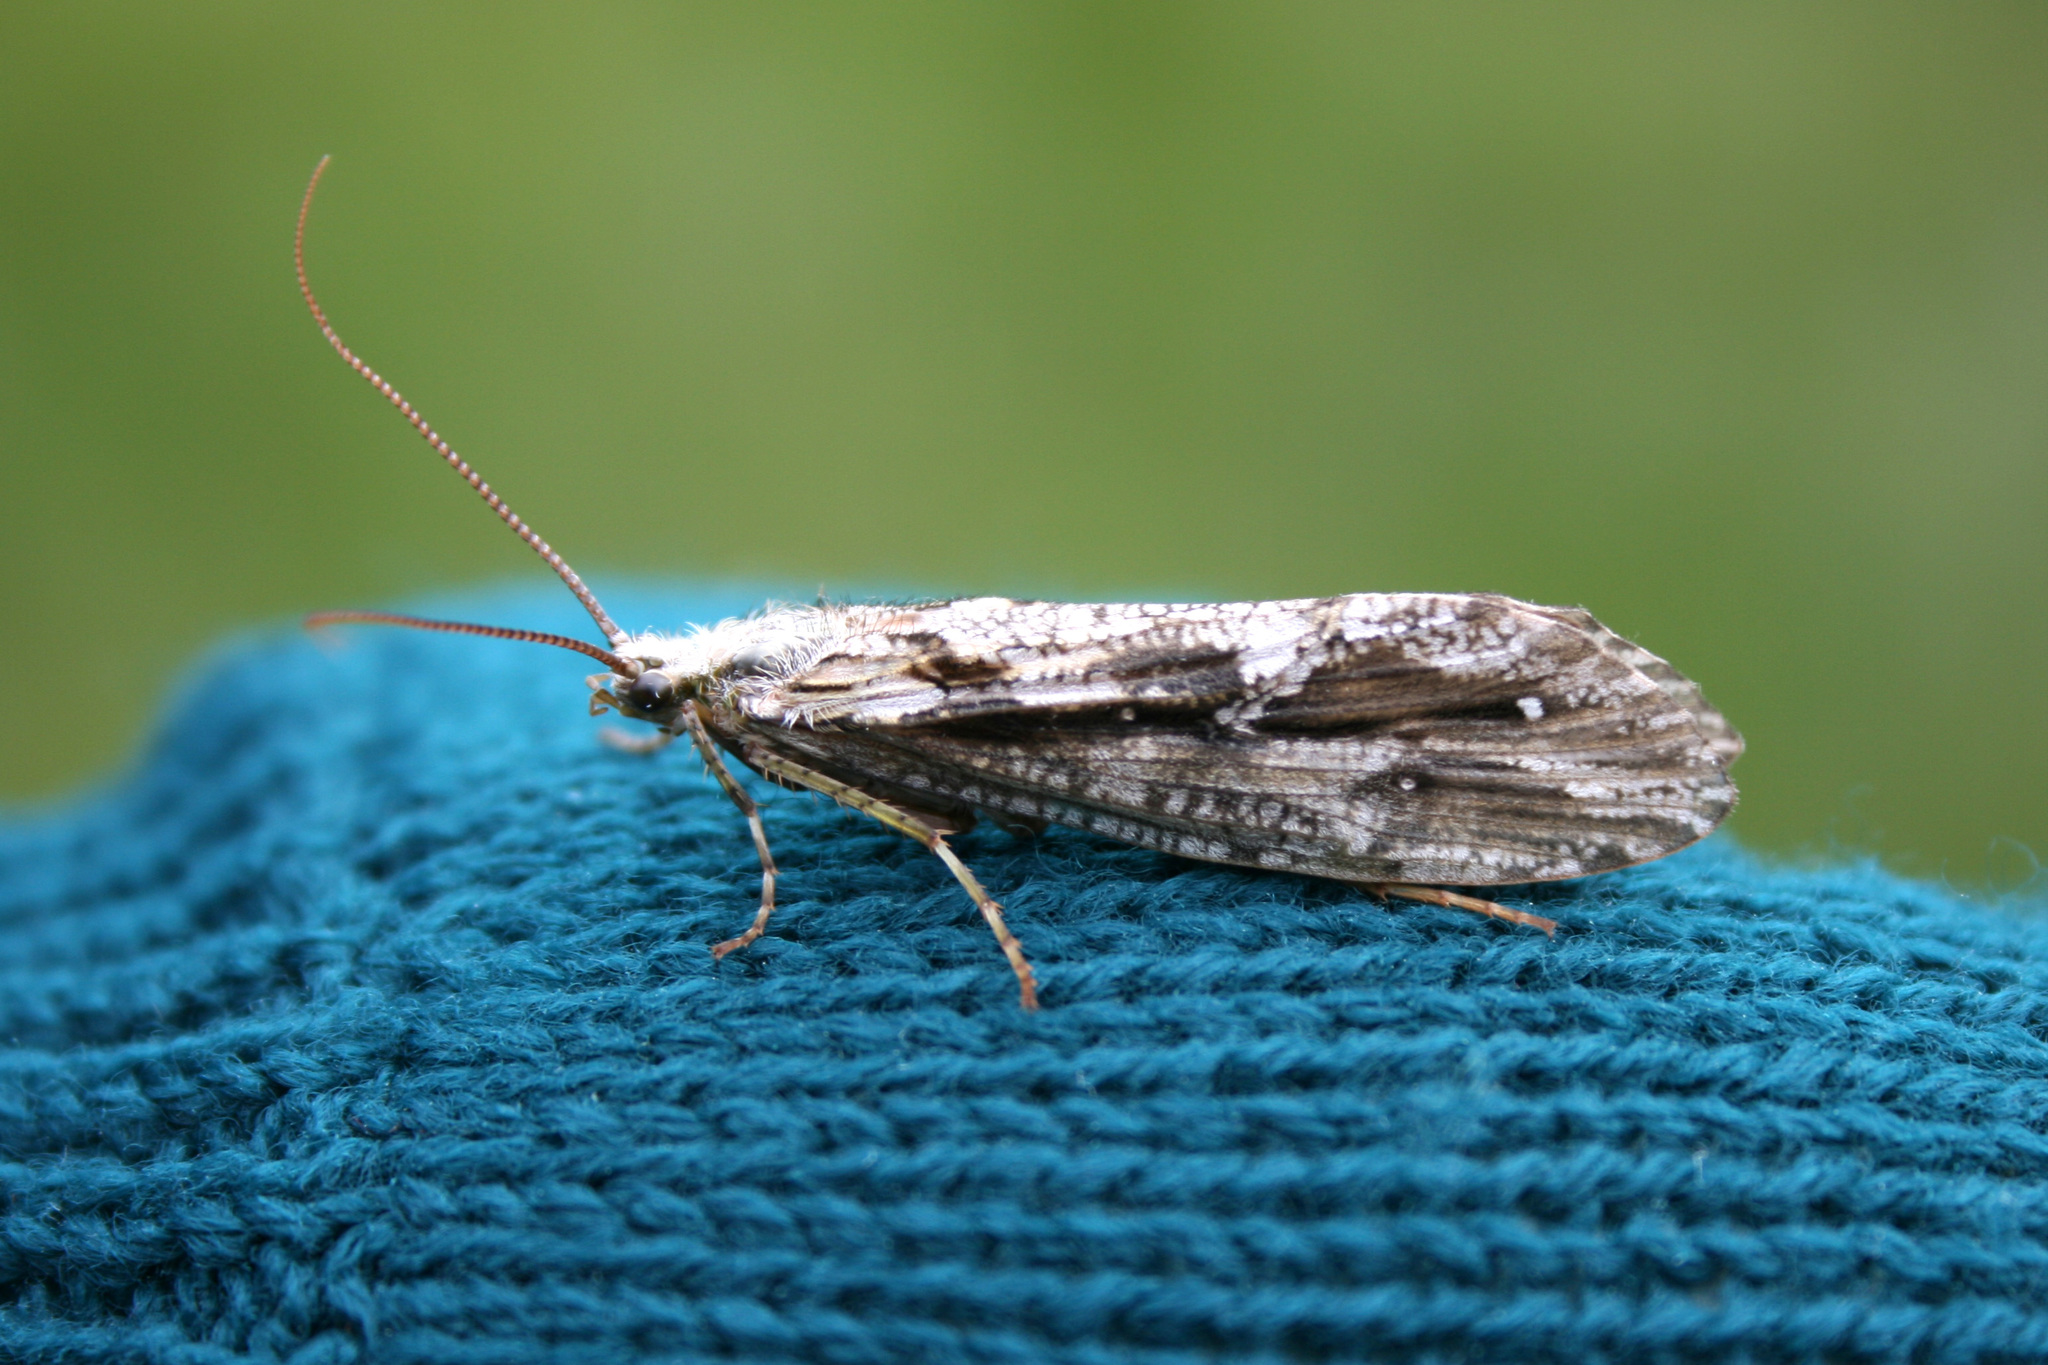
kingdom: Animalia
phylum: Arthropoda
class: Insecta
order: Trichoptera
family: Phryganeidae
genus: Phryganea
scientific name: Phryganea
